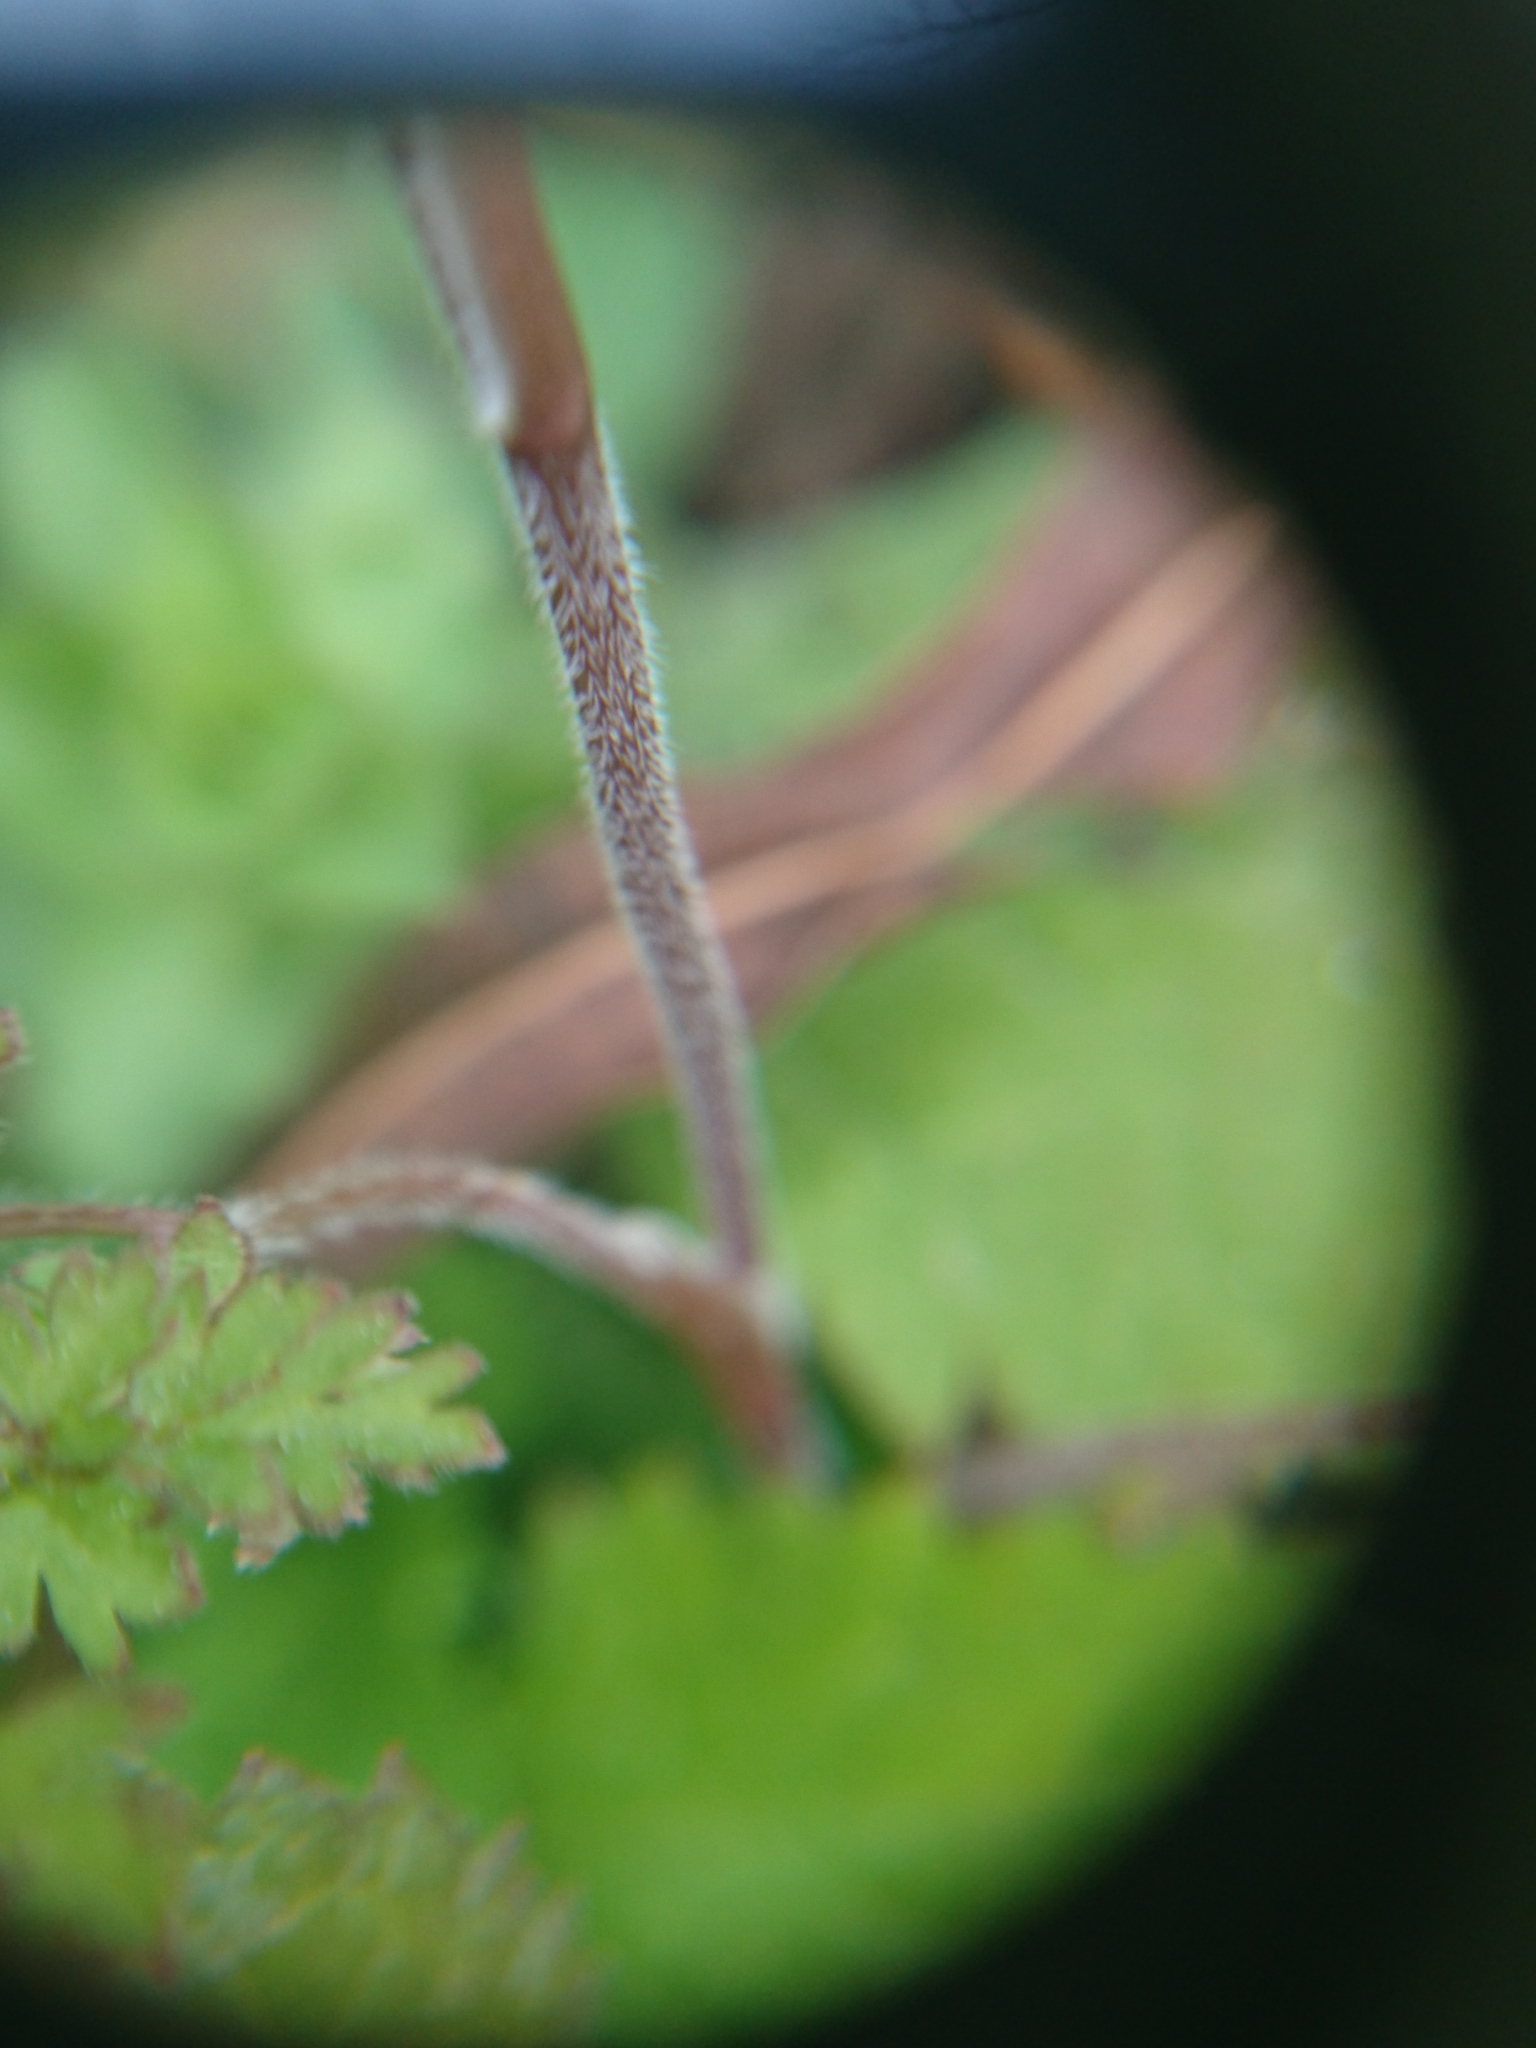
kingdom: Plantae
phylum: Tracheophyta
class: Magnoliopsida
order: Apiales
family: Apiaceae
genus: Chaerophyllum
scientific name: Chaerophyllum tainturieri
